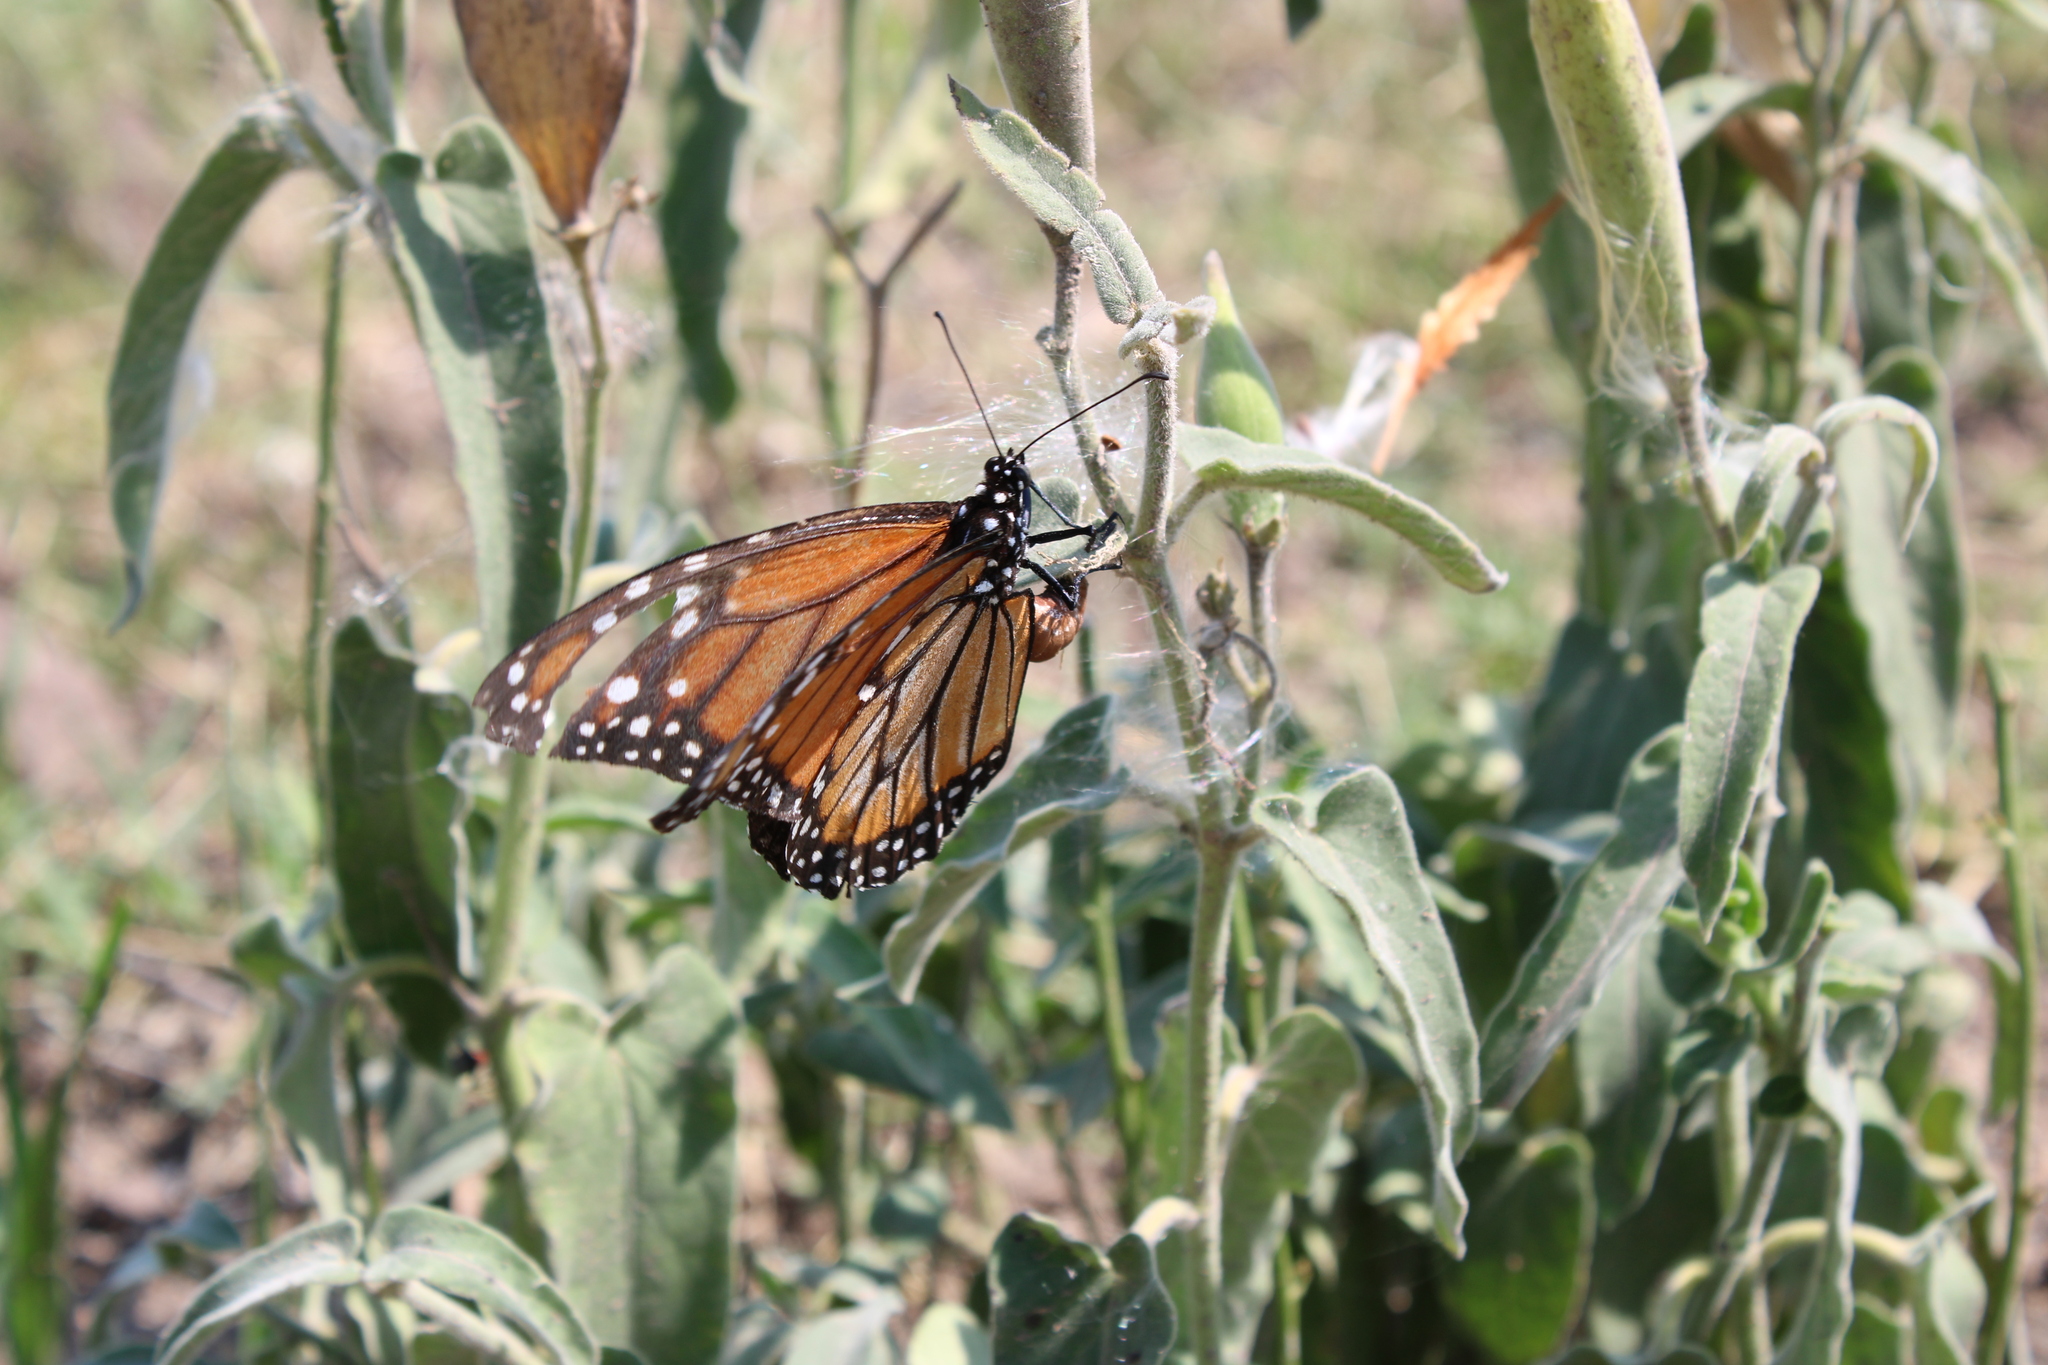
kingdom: Animalia
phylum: Arthropoda
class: Insecta
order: Lepidoptera
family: Nymphalidae
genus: Danaus
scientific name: Danaus erippus
